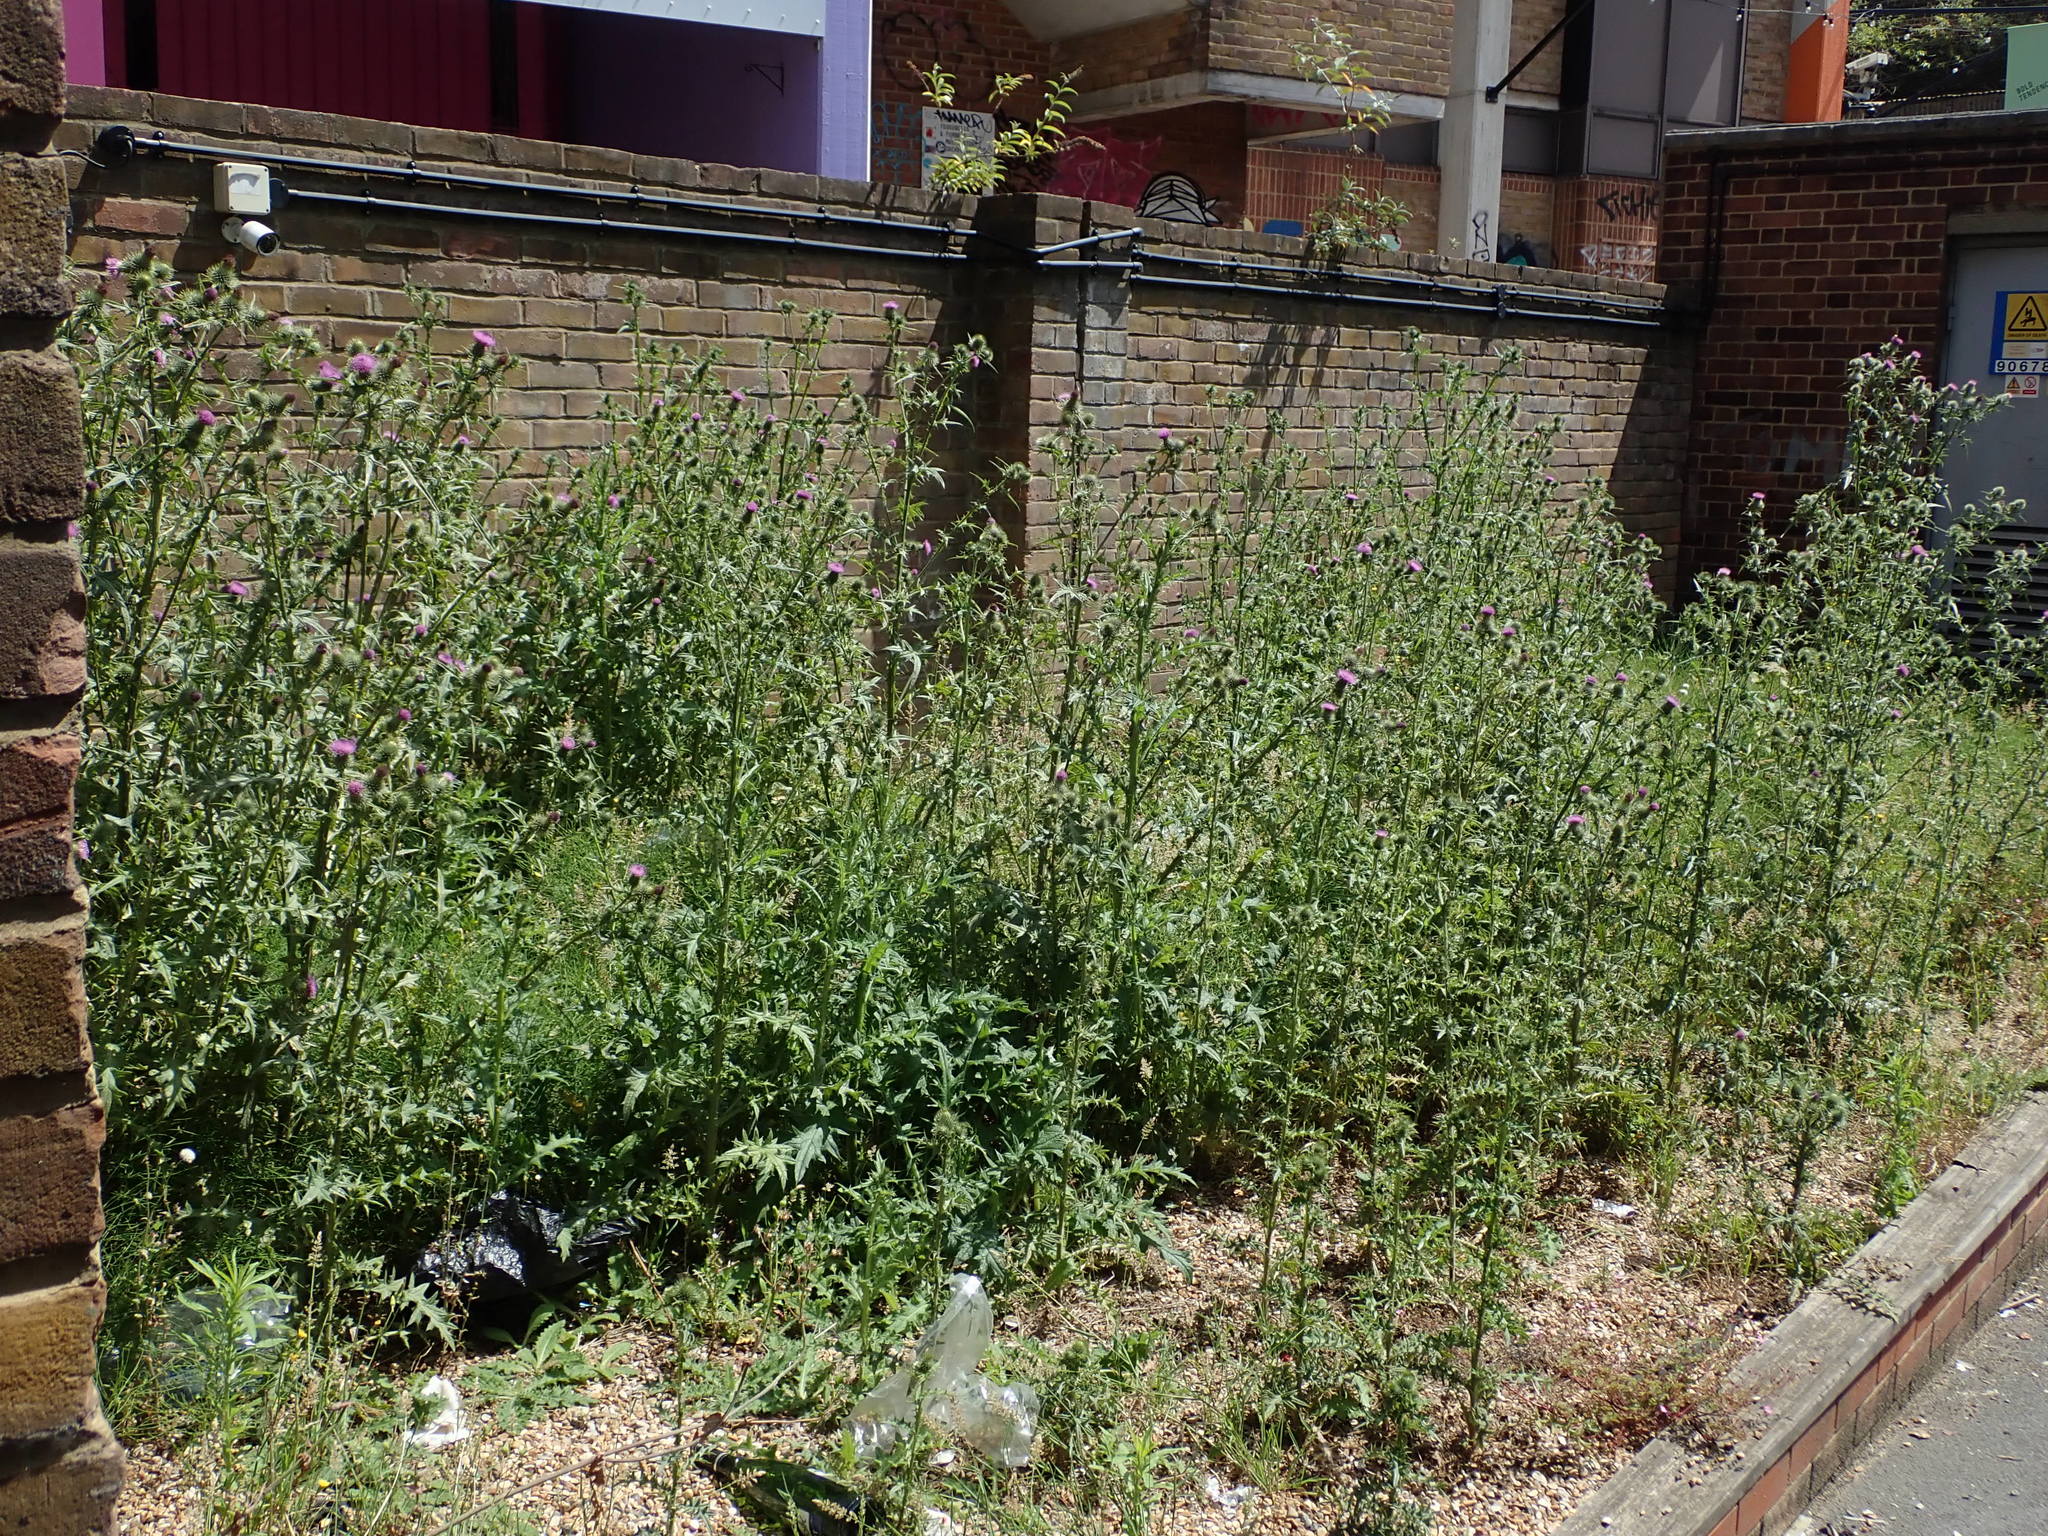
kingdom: Plantae
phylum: Tracheophyta
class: Magnoliopsida
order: Asterales
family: Asteraceae
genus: Cirsium
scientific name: Cirsium vulgare
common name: Bull thistle
